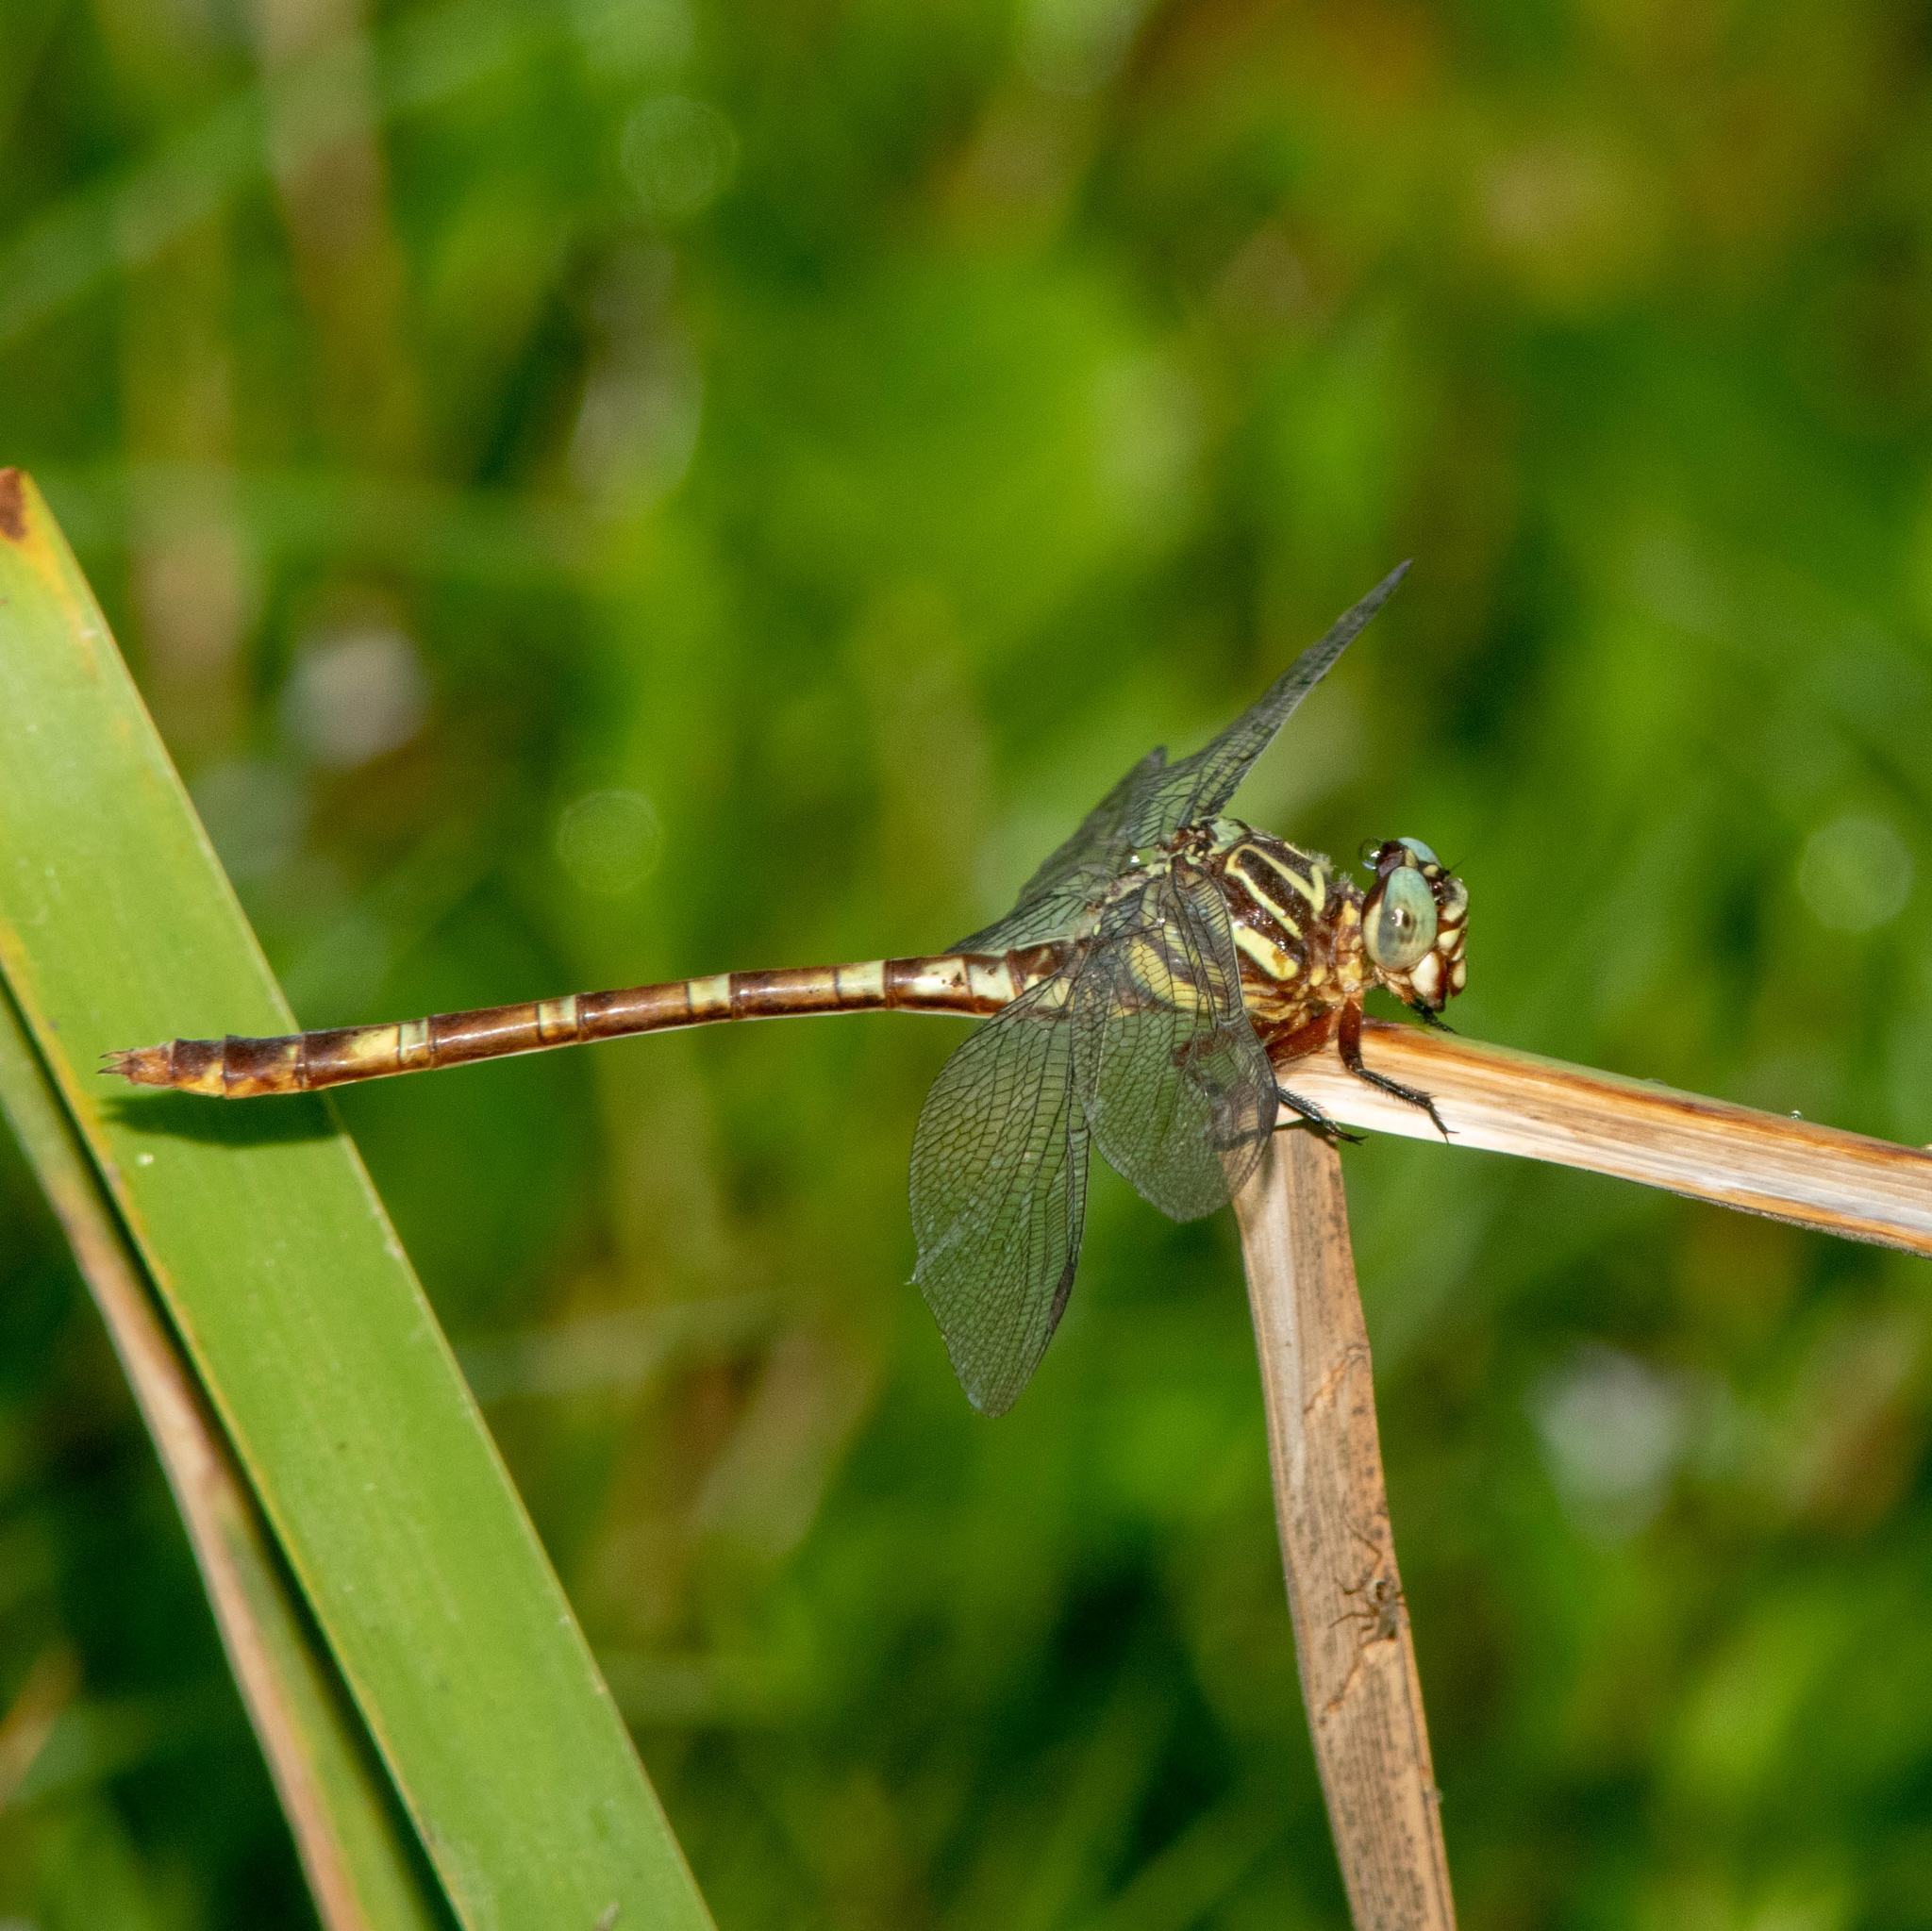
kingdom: Animalia
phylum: Arthropoda
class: Insecta
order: Odonata
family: Gomphidae
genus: Aphylla
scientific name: Aphylla angustifolia
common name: Broad-striped forceptail
